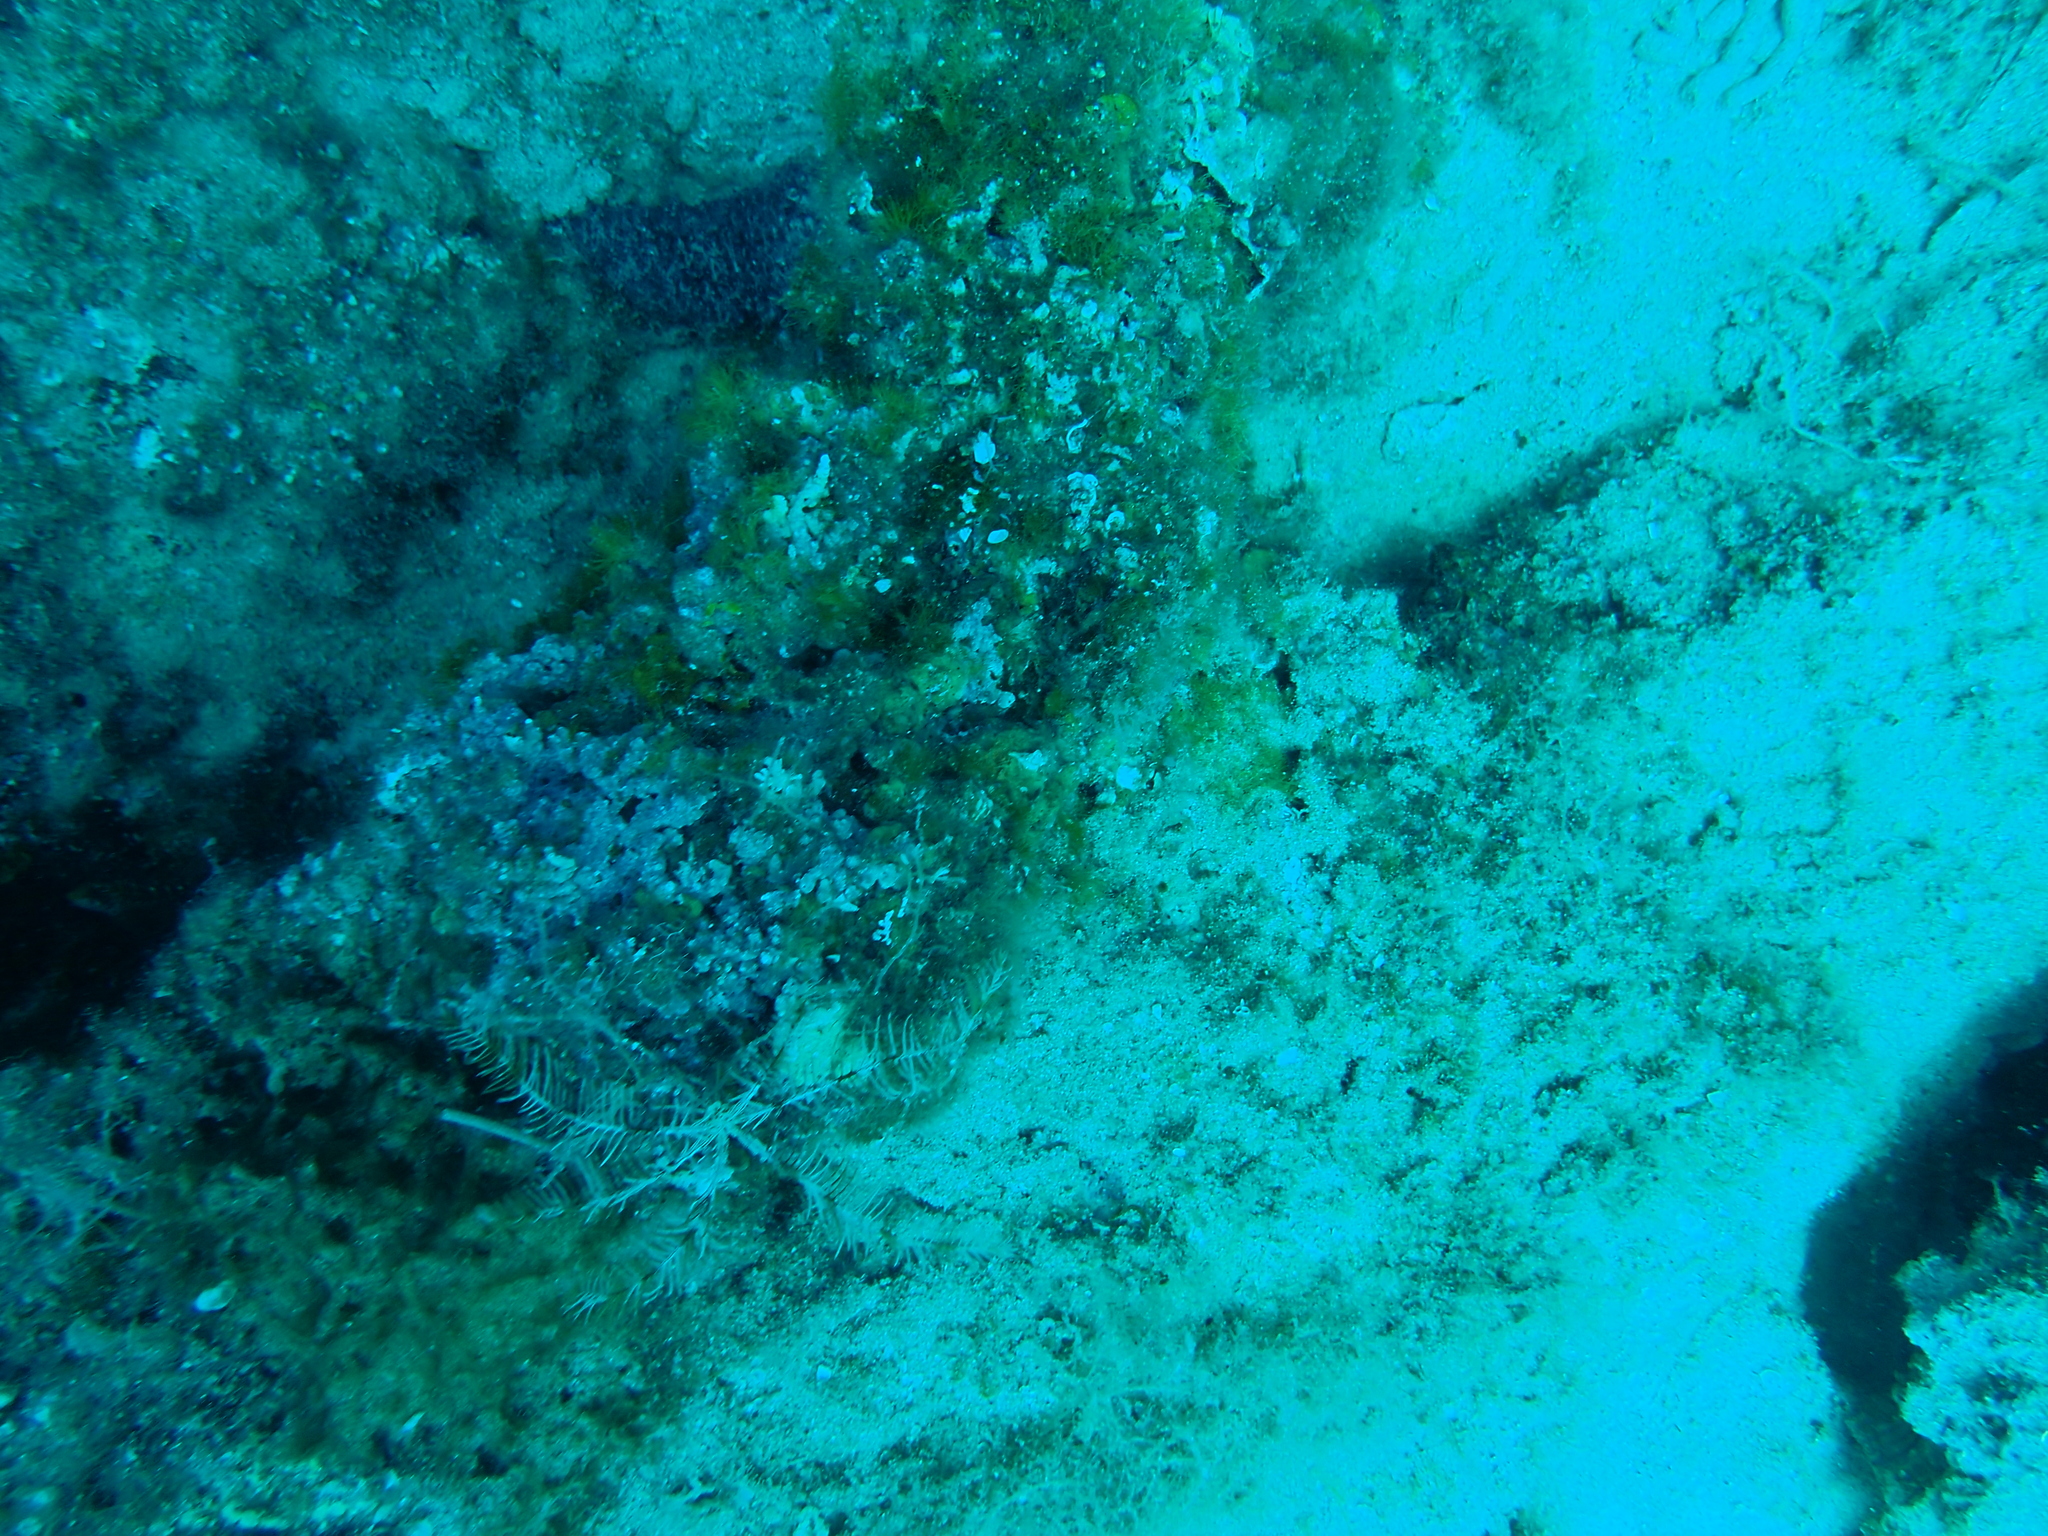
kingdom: Animalia
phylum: Echinodermata
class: Crinoidea
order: Comatulida
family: Antedonidae
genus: Antedon
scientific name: Antedon mediterranea
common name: Feather star
